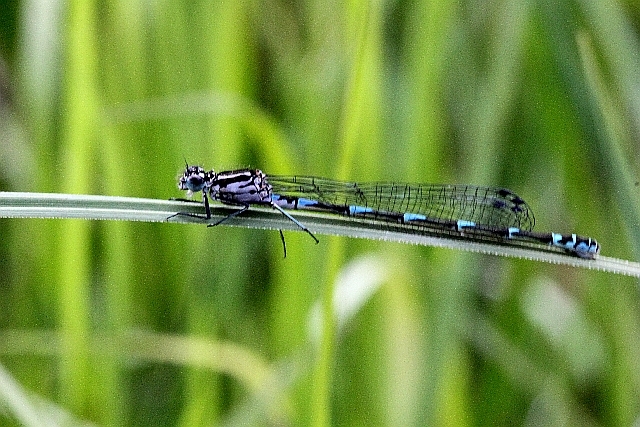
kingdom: Animalia
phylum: Arthropoda
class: Insecta
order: Odonata
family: Coenagrionidae
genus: Coenagrion
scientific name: Coenagrion pulchellum
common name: Variable bluet
